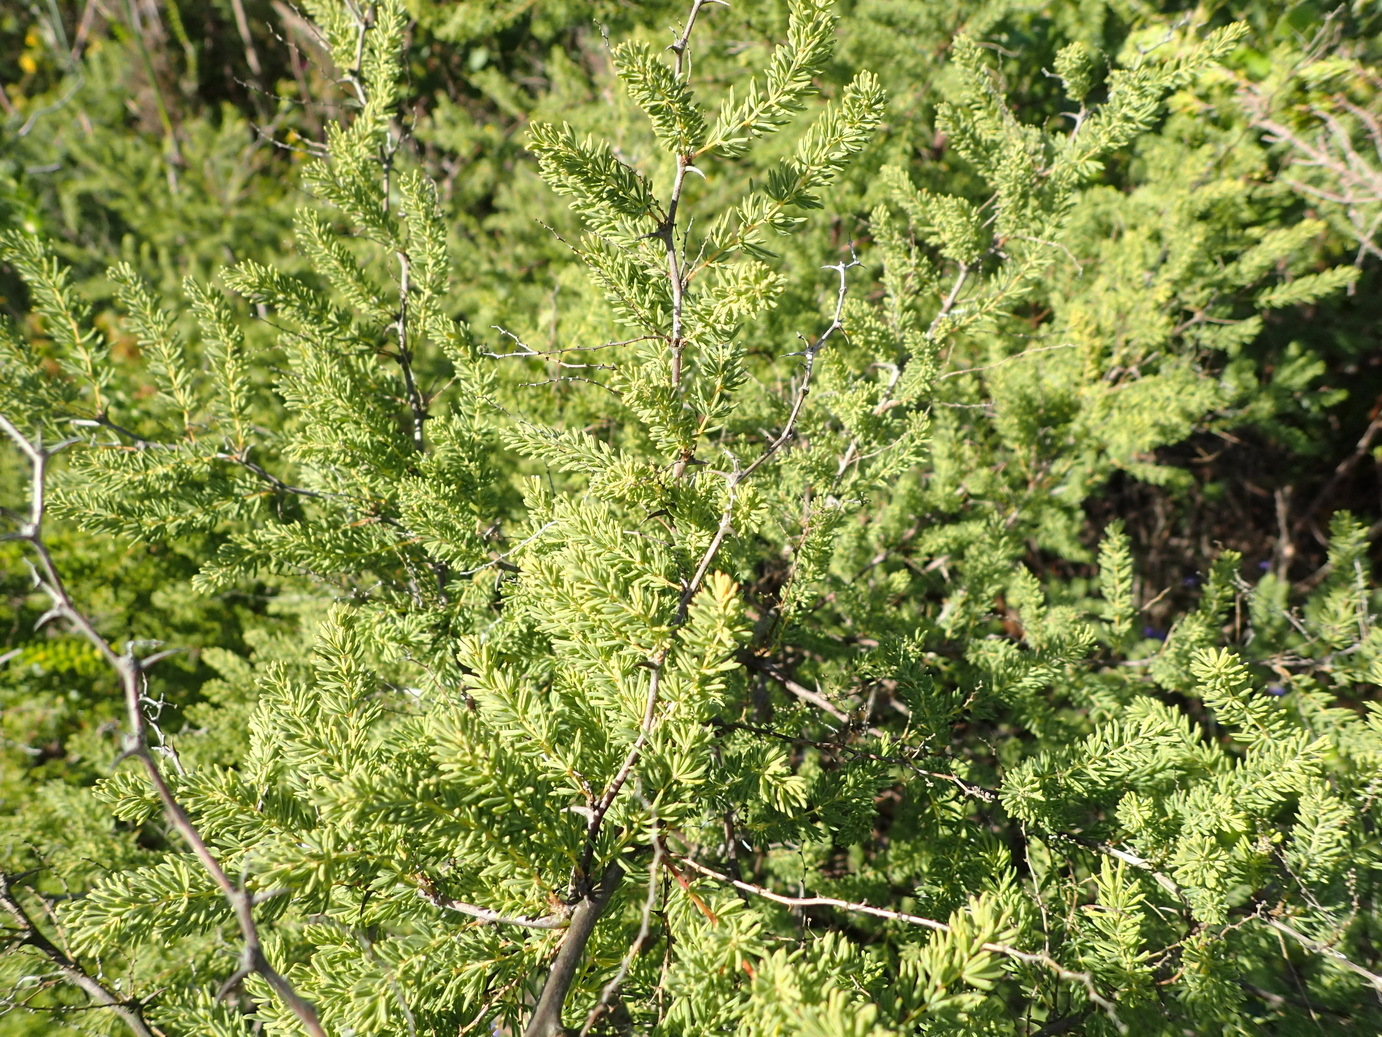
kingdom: Plantae
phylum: Tracheophyta
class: Liliopsida
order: Asparagales
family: Asparagaceae
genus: Asparagus
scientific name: Asparagus rubicundus
